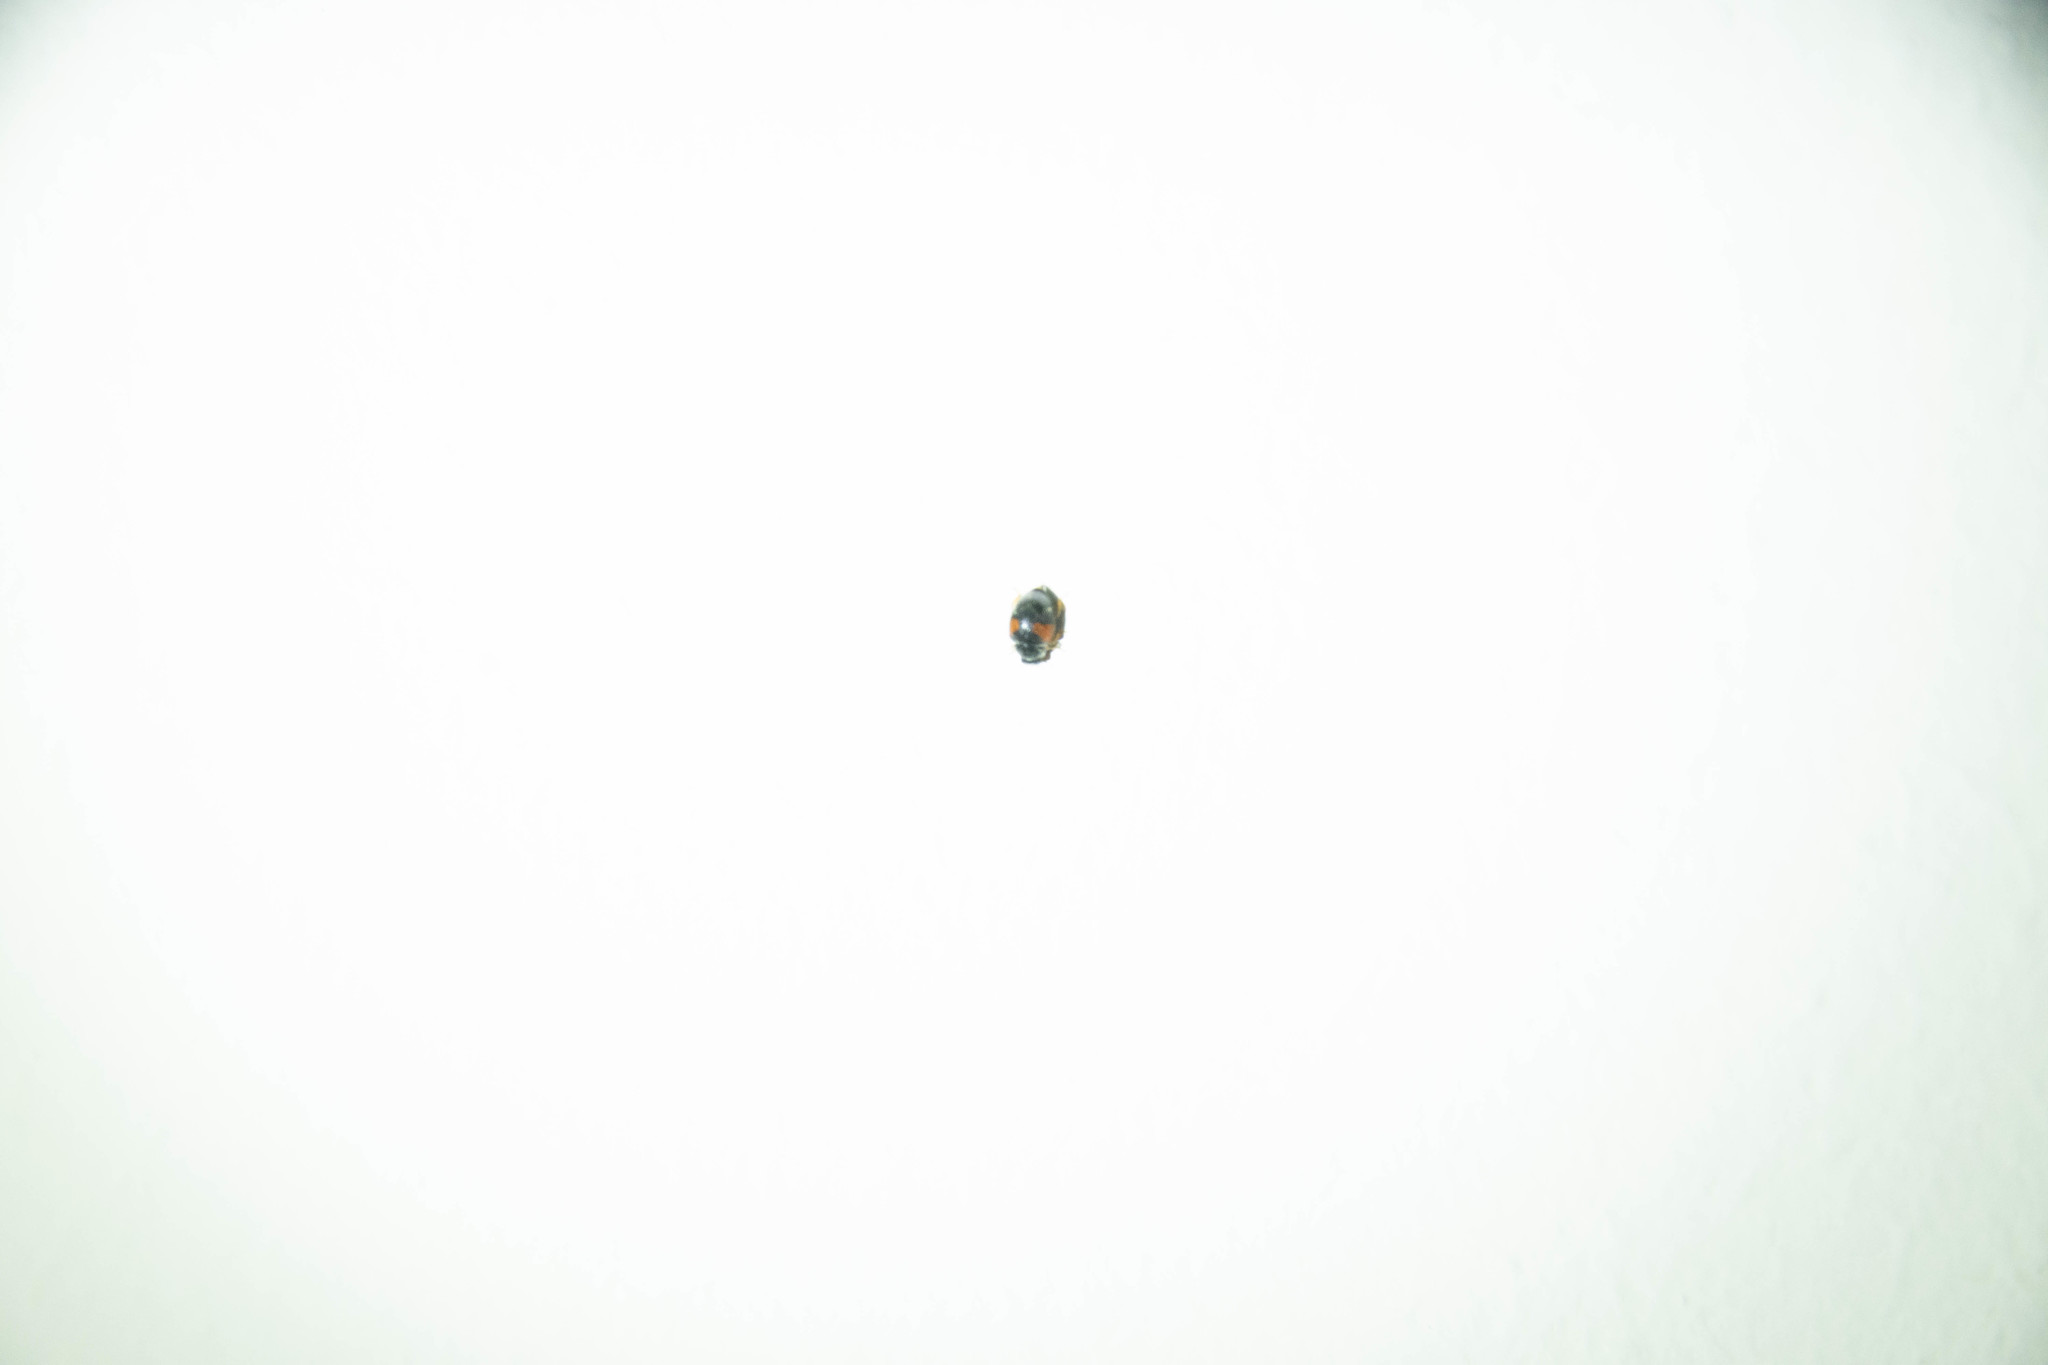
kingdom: Animalia
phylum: Arthropoda
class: Insecta
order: Coleoptera
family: Coccinellidae
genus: Scymnus
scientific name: Scymnus interruptus
